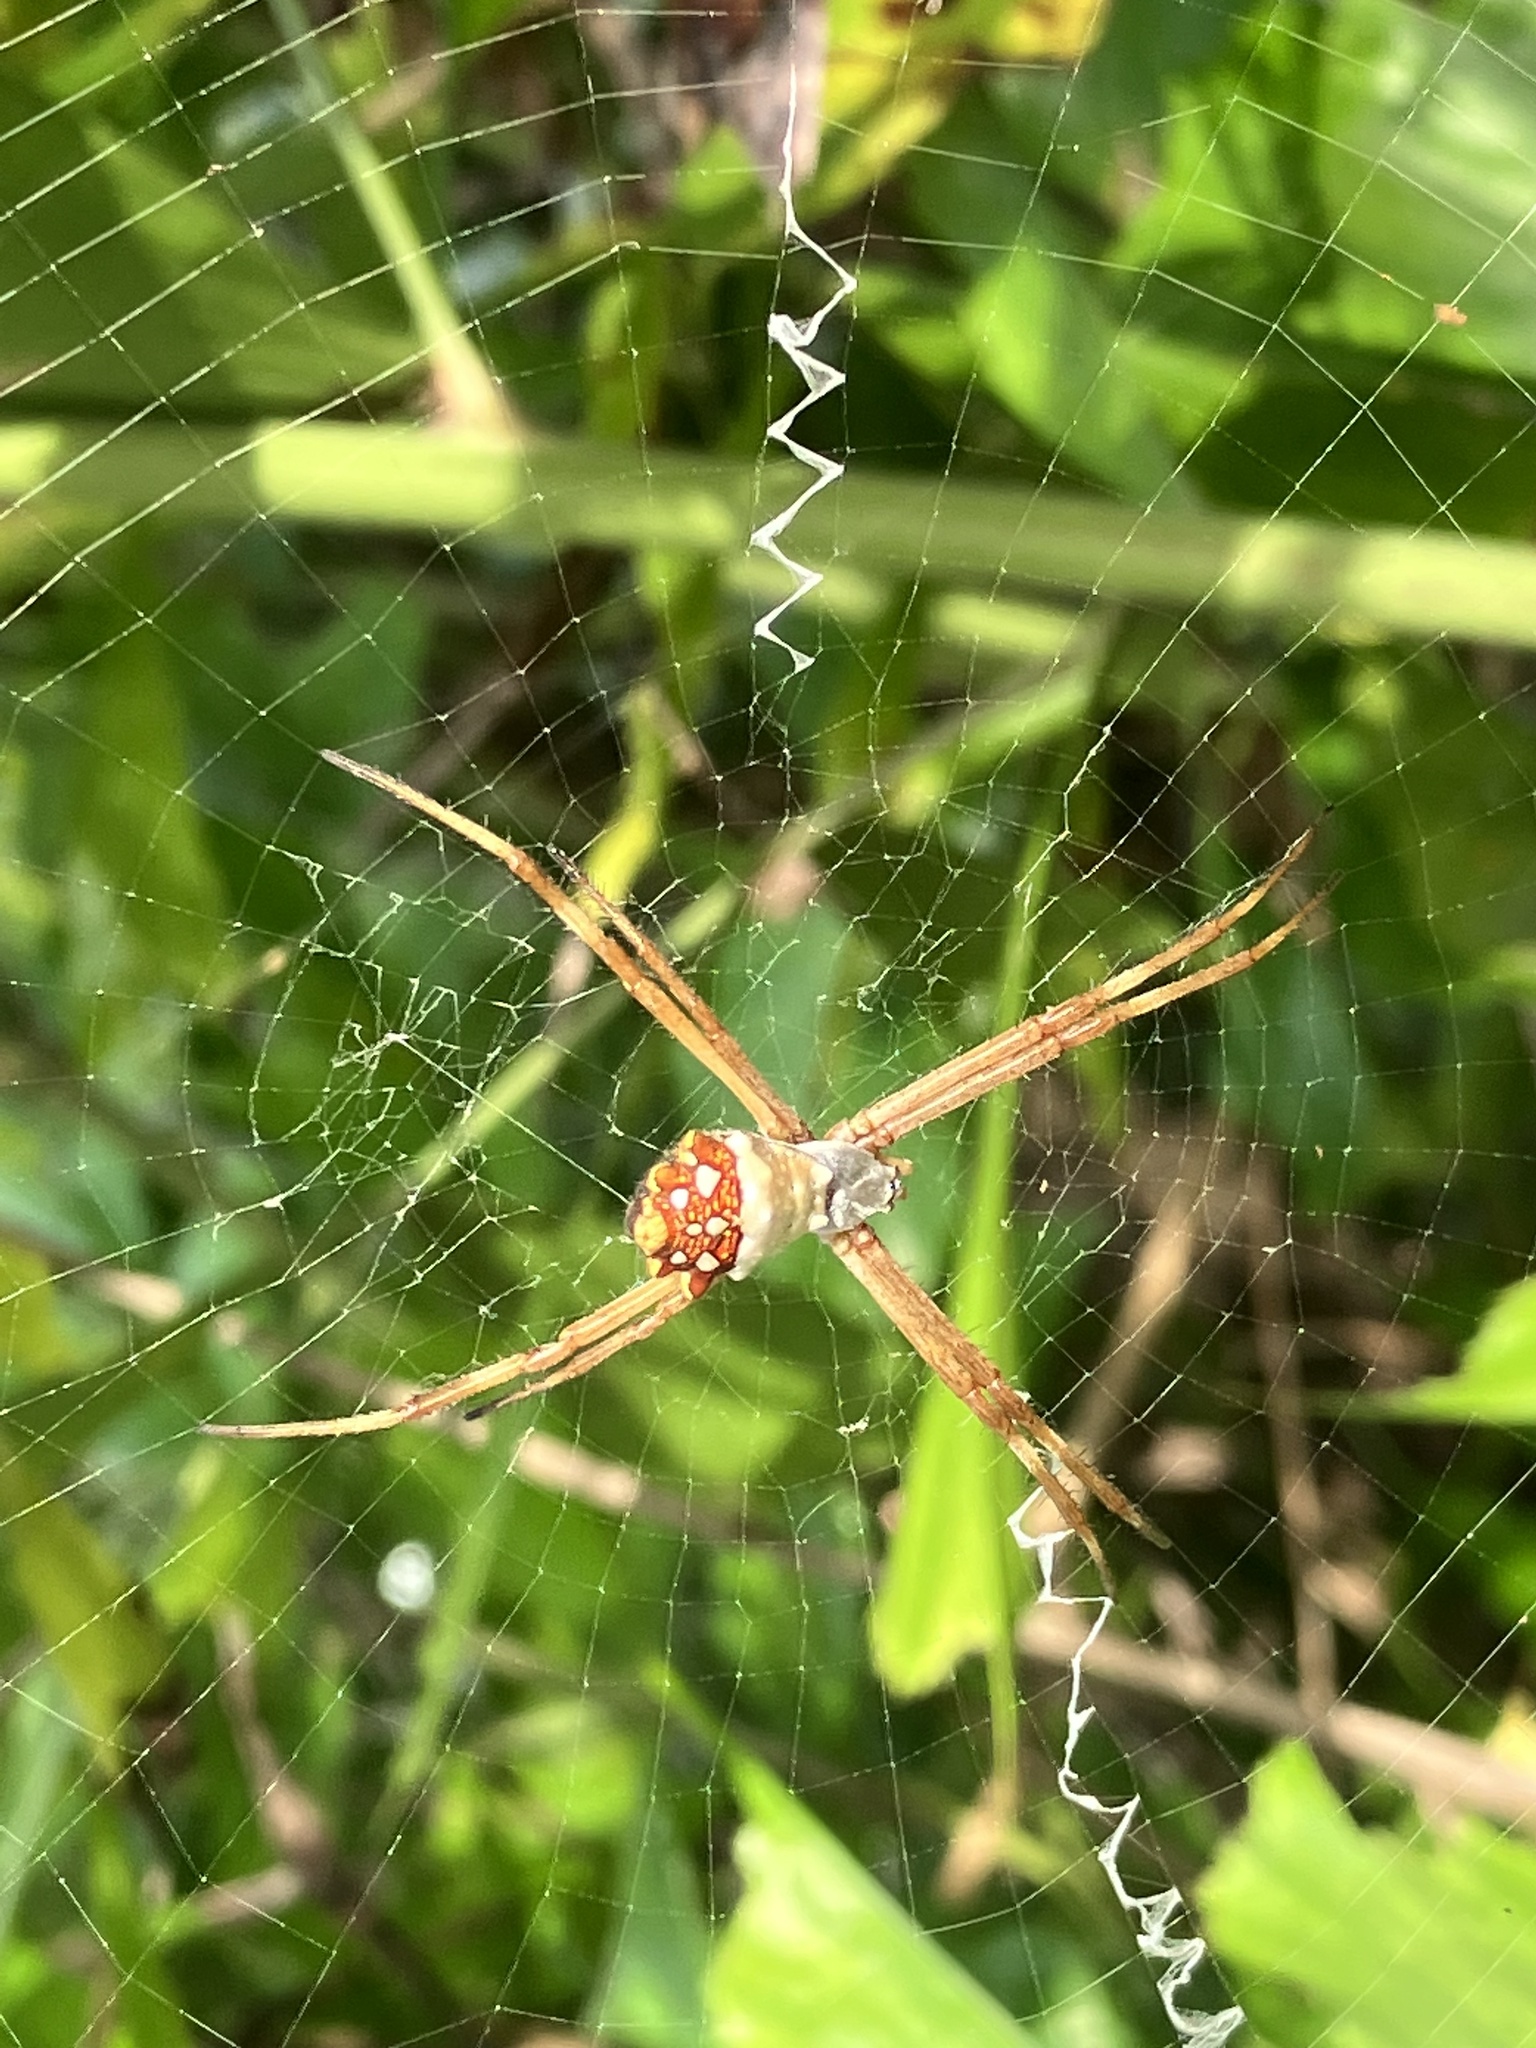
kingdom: Animalia
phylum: Arthropoda
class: Arachnida
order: Araneae
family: Araneidae
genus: Argiope
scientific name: Argiope argentata
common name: Orb weavers
